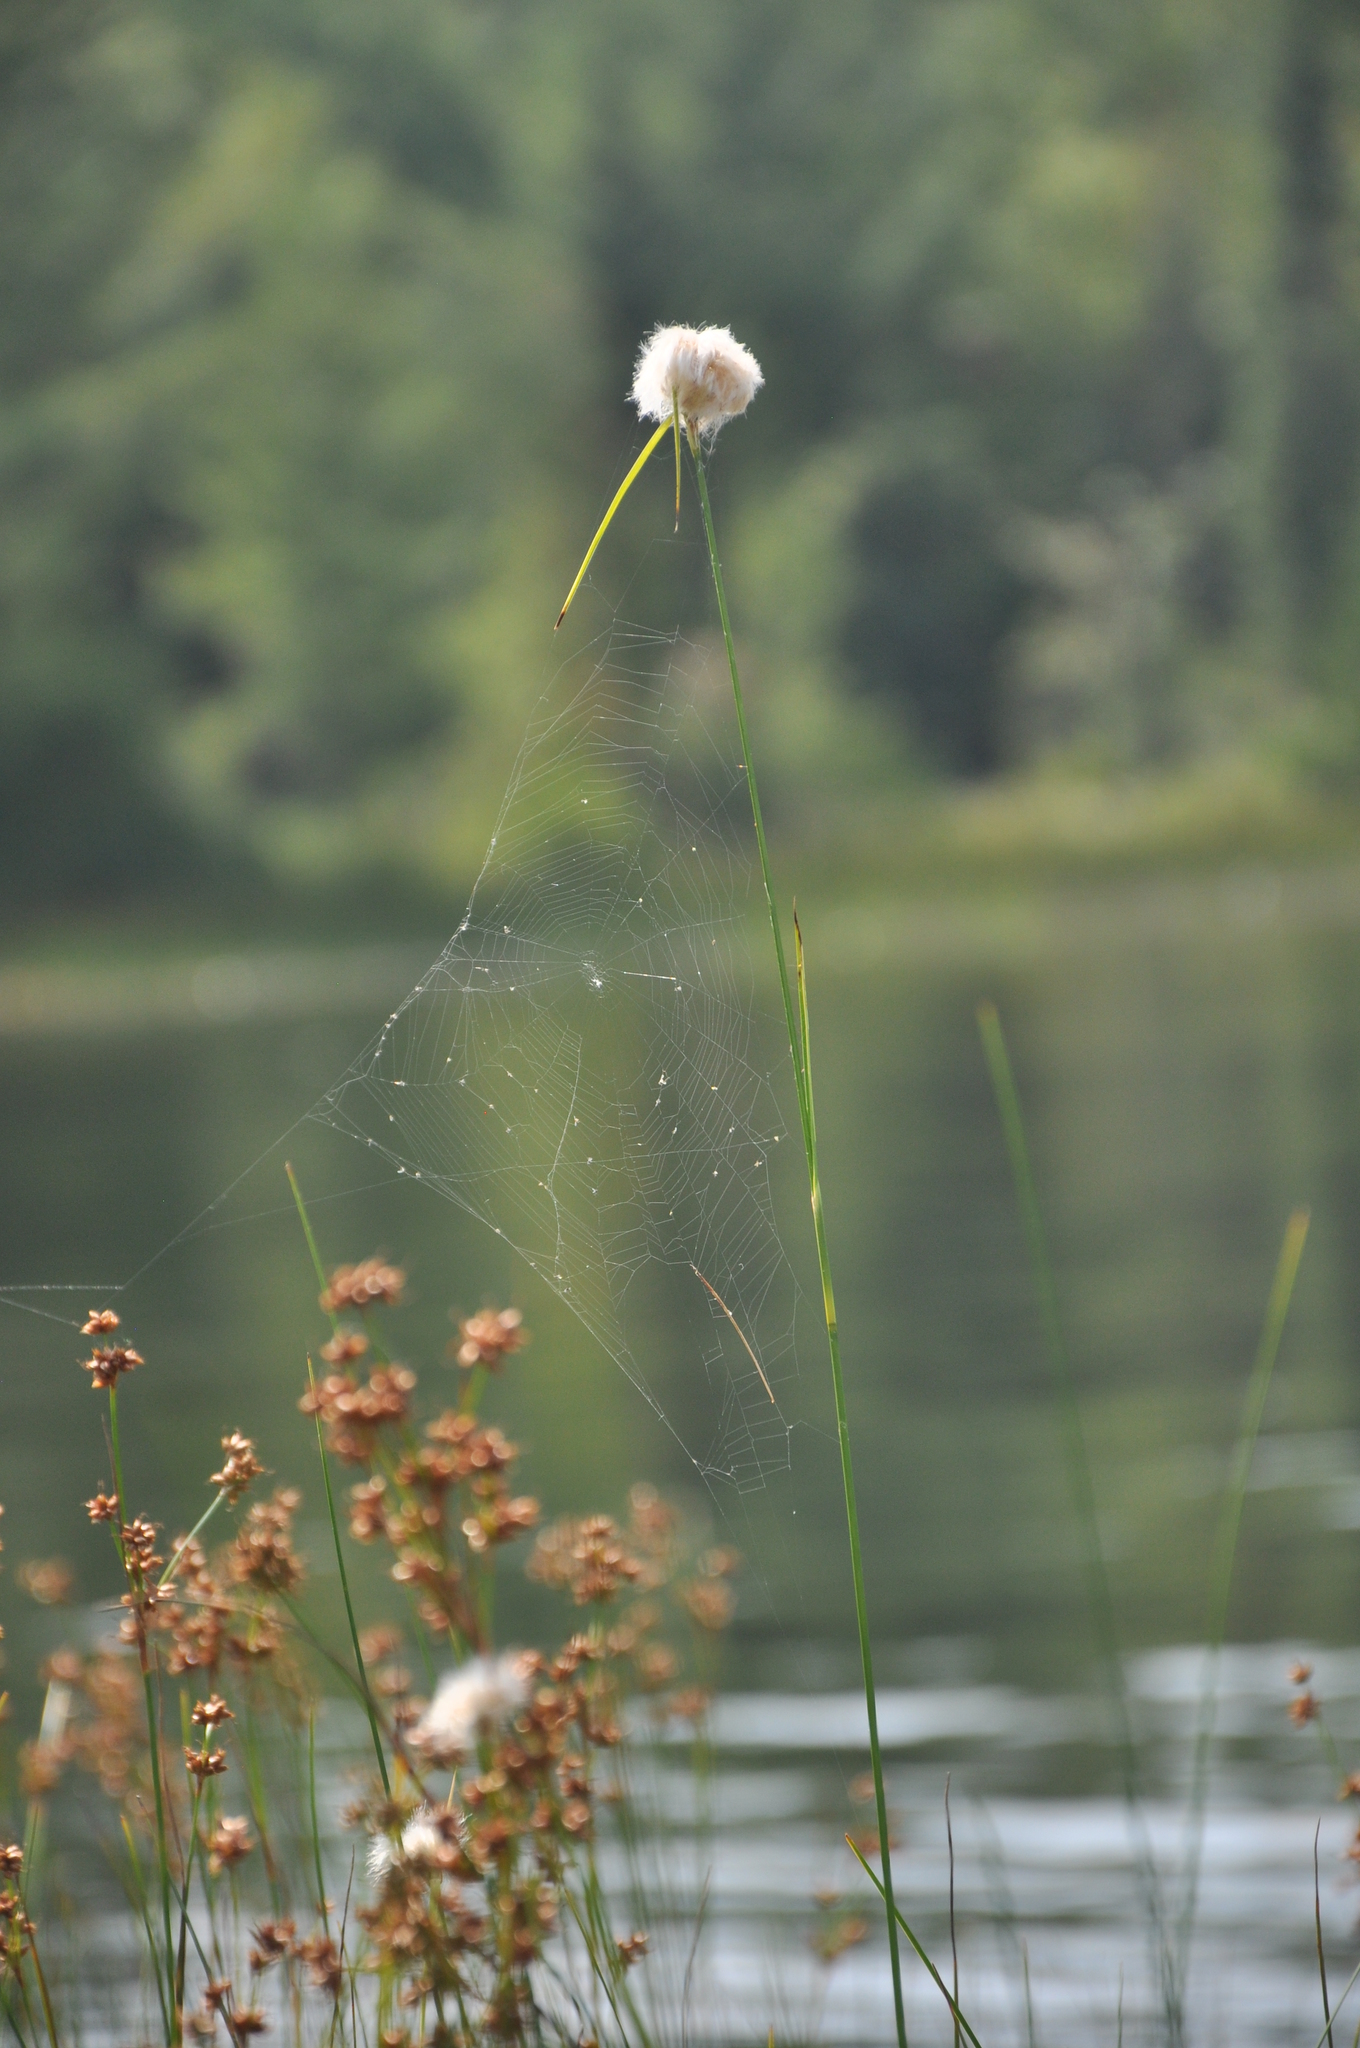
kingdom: Plantae
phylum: Tracheophyta
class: Liliopsida
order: Poales
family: Cyperaceae
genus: Eriophorum
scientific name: Eriophorum virginicum
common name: Tawny cottongrass
